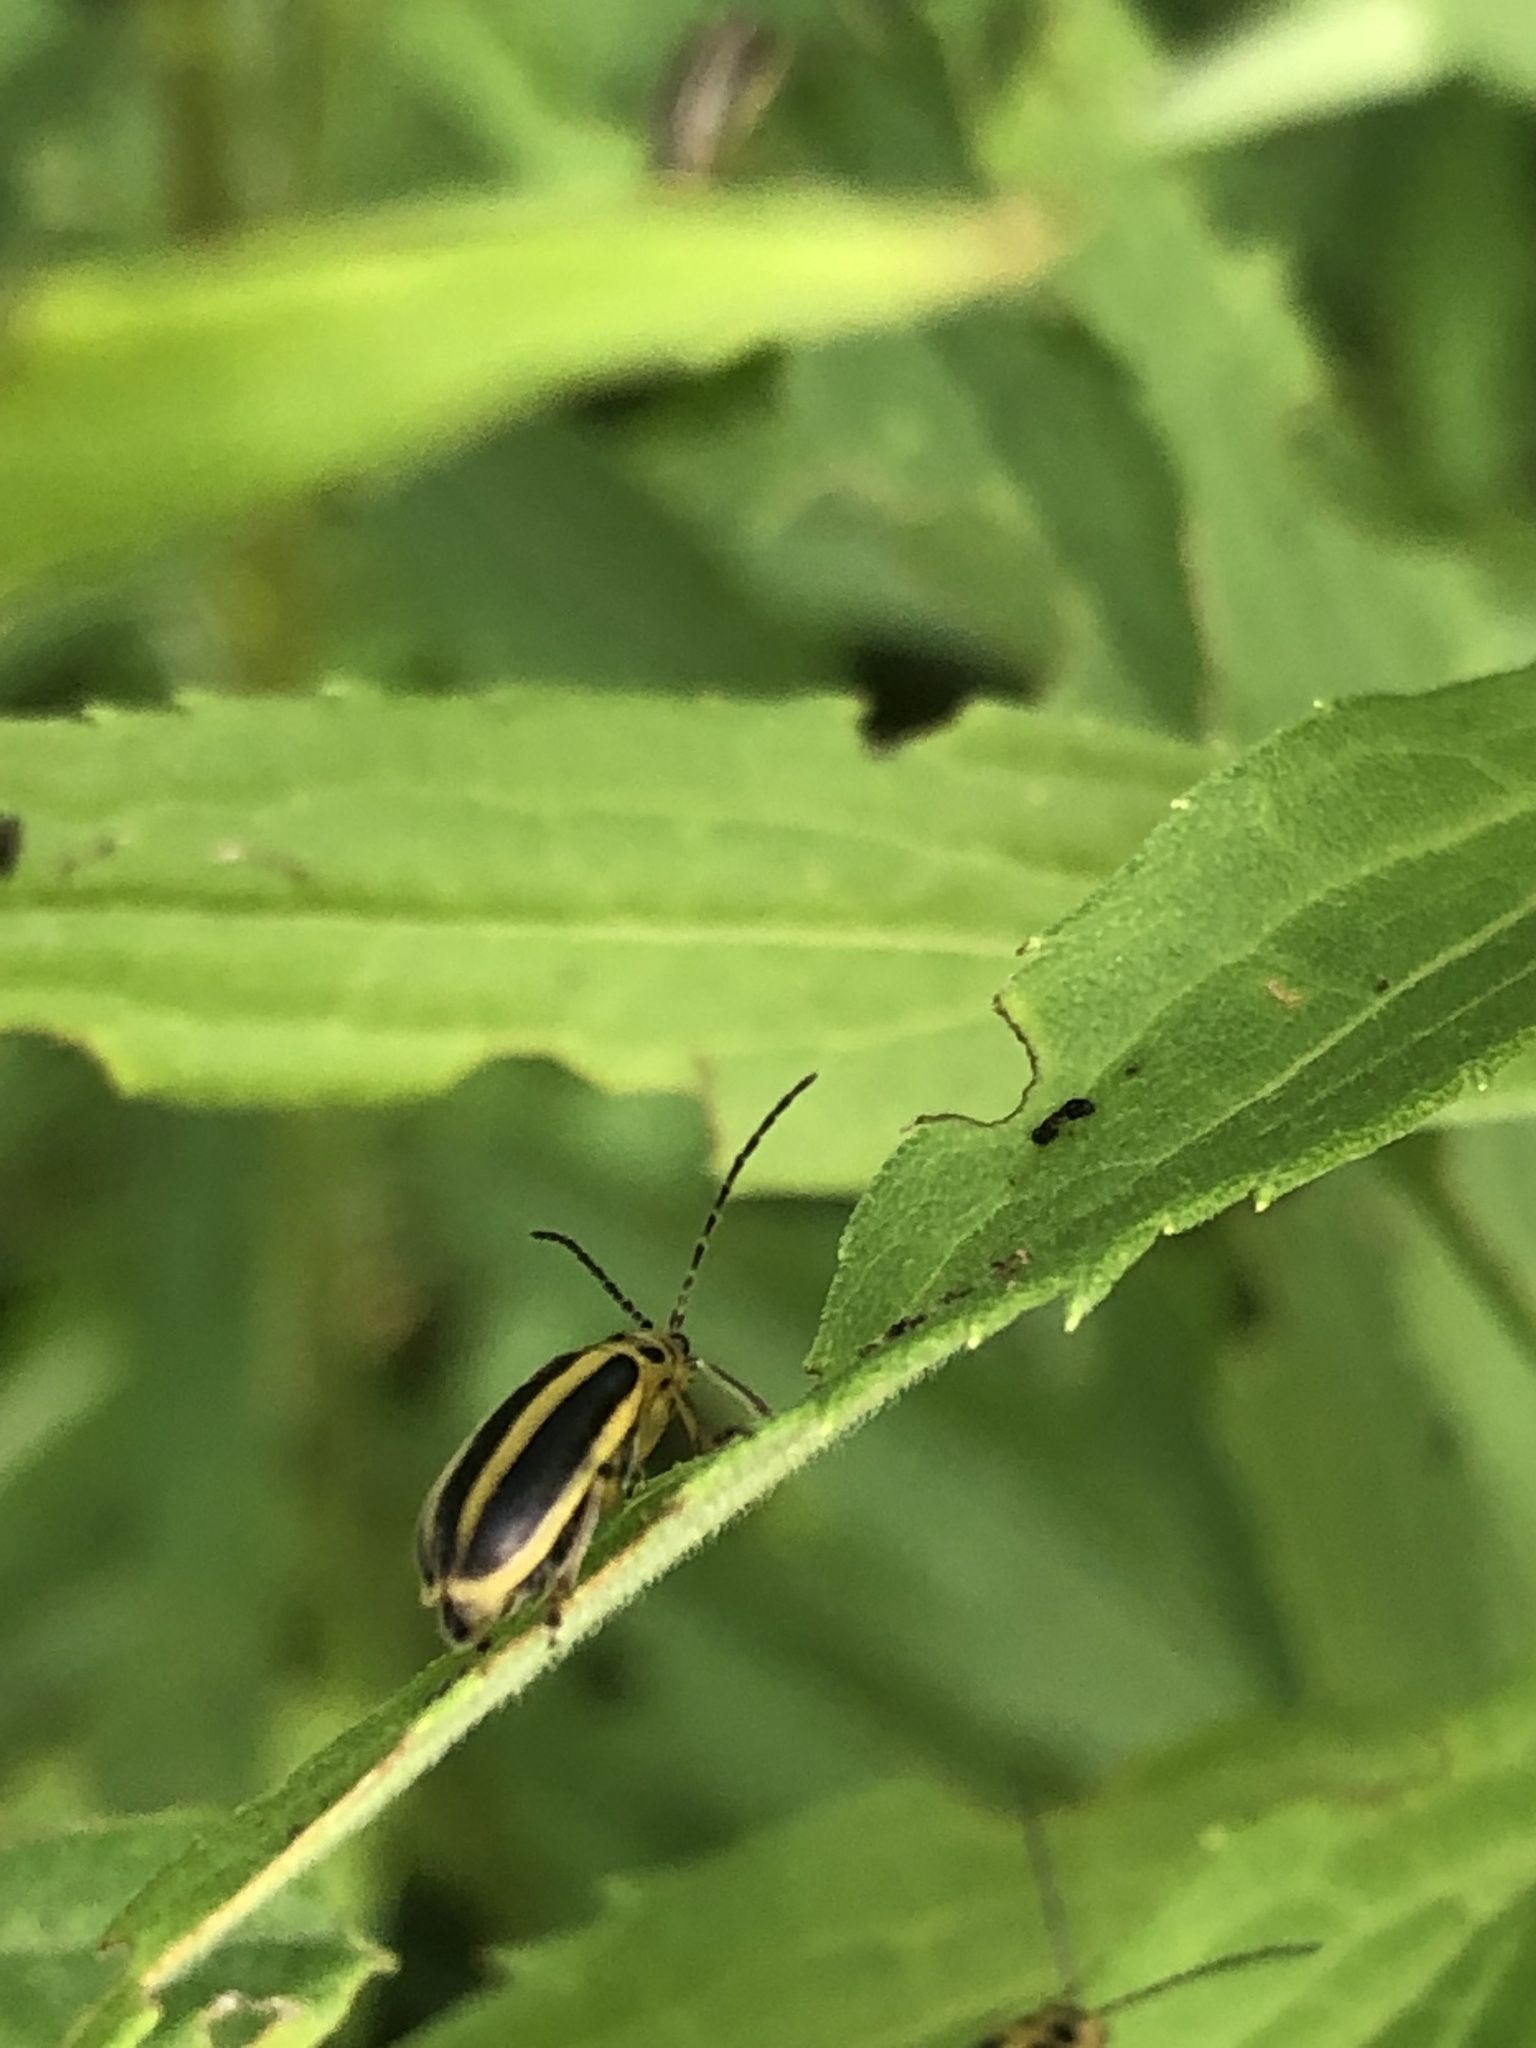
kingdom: Animalia
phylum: Arthropoda
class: Insecta
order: Coleoptera
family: Chrysomelidae
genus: Trirhabda
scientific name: Trirhabda canadensis
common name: Goldenrod leaf beetle
